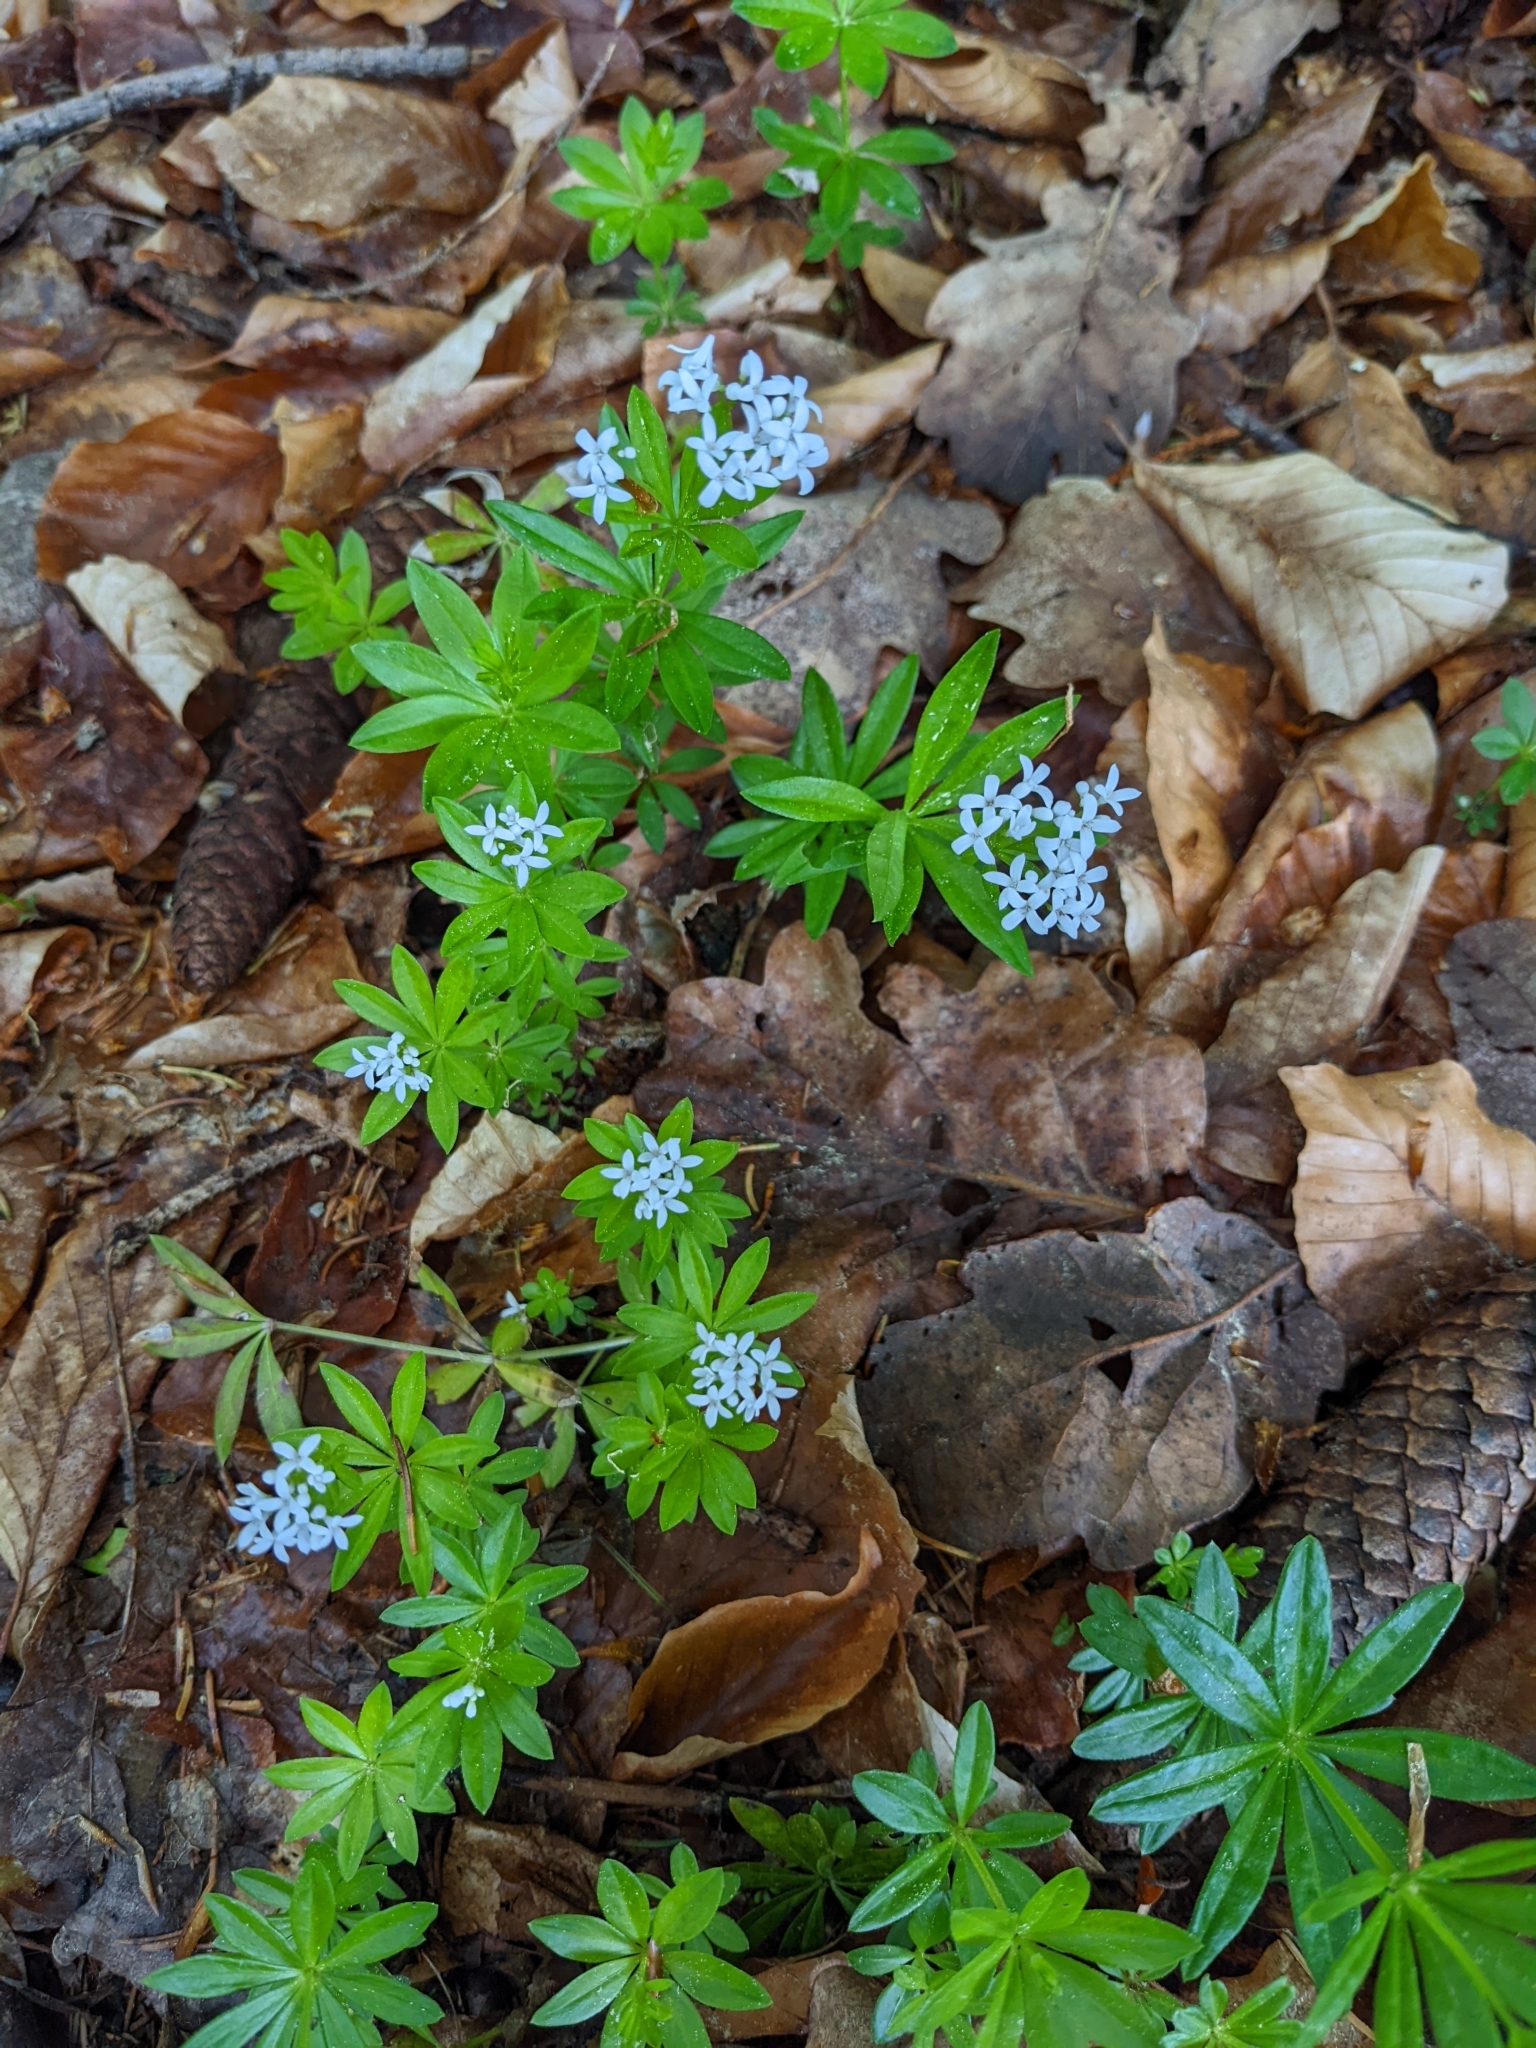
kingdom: Plantae
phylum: Tracheophyta
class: Magnoliopsida
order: Gentianales
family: Rubiaceae
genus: Galium
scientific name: Galium odoratum
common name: Sweet woodruff
